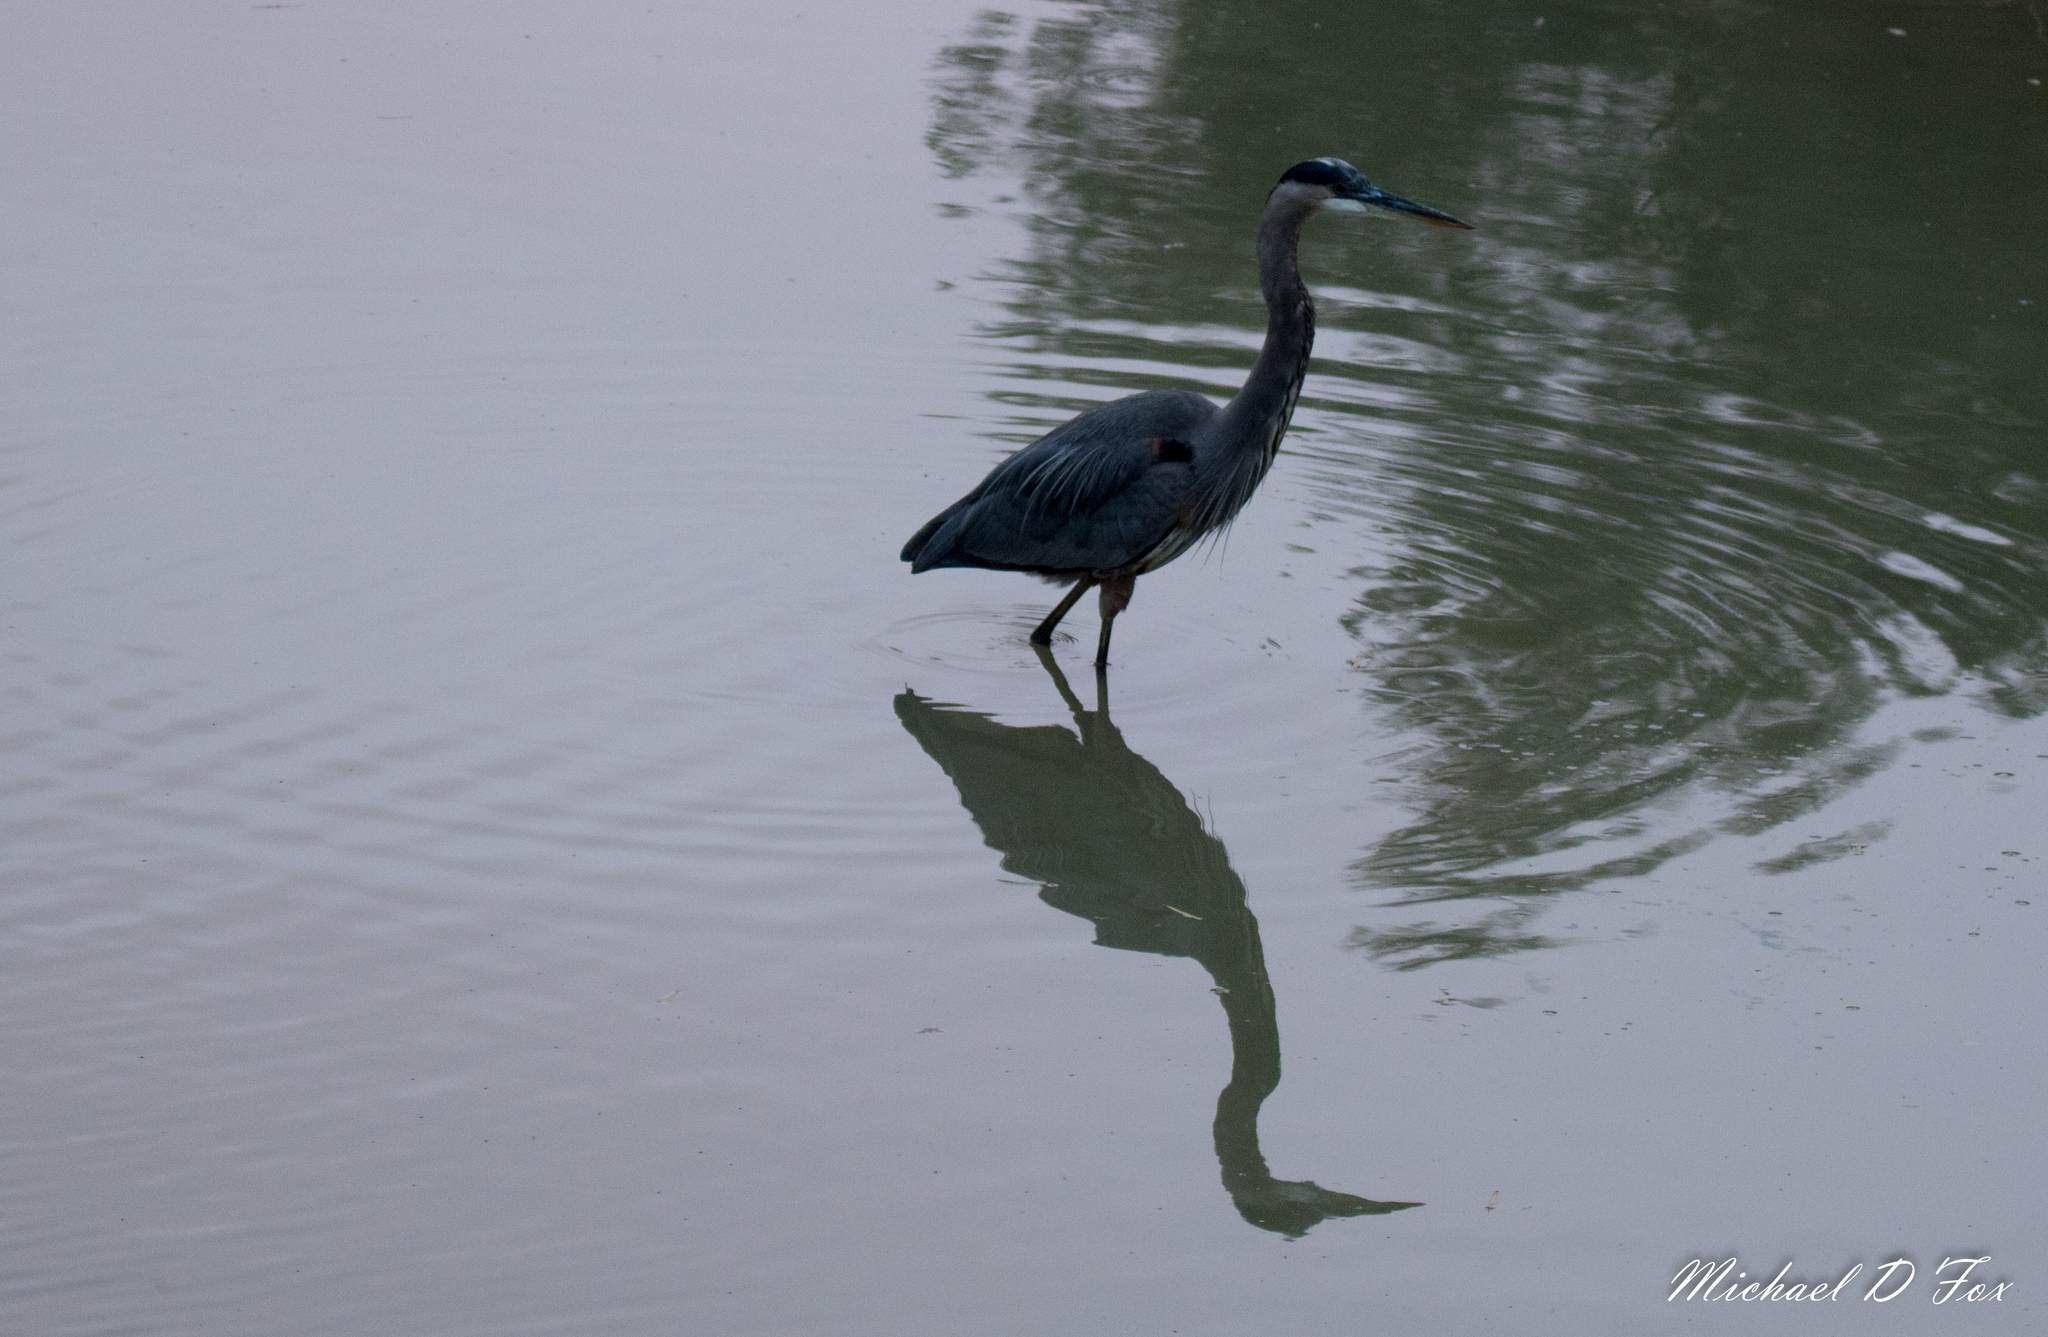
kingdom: Animalia
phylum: Chordata
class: Aves
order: Pelecaniformes
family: Ardeidae
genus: Ardea
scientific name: Ardea herodias
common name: Great blue heron
